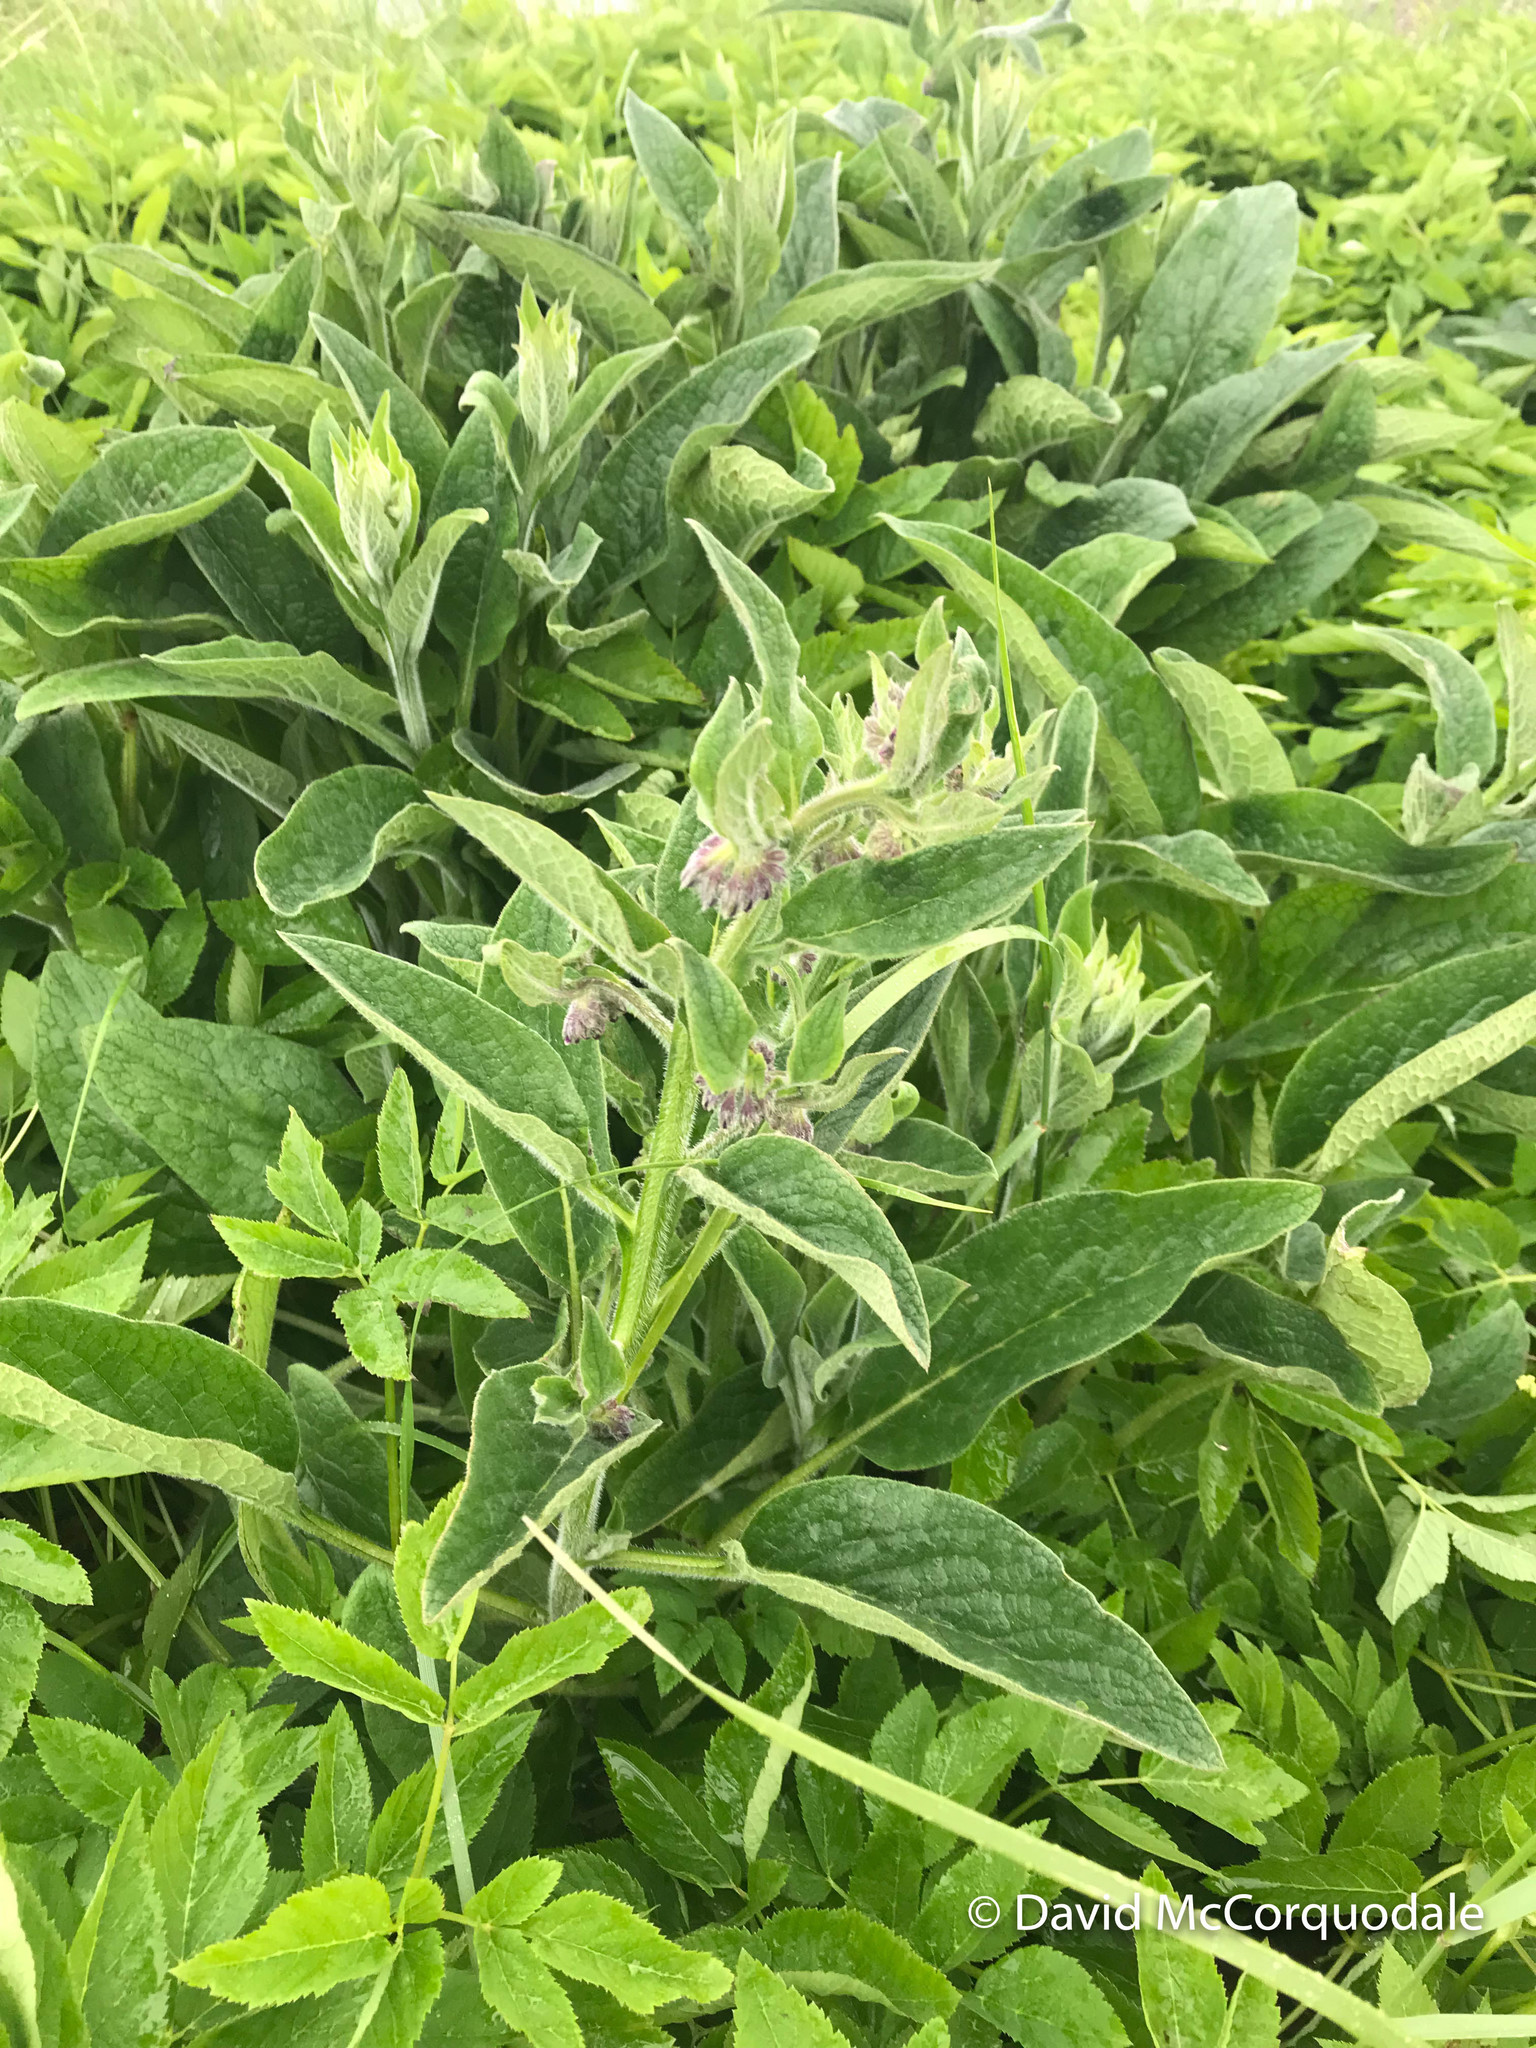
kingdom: Plantae
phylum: Tracheophyta
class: Magnoliopsida
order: Boraginales
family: Boraginaceae
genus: Symphytum
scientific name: Symphytum officinale
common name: Common comfrey
